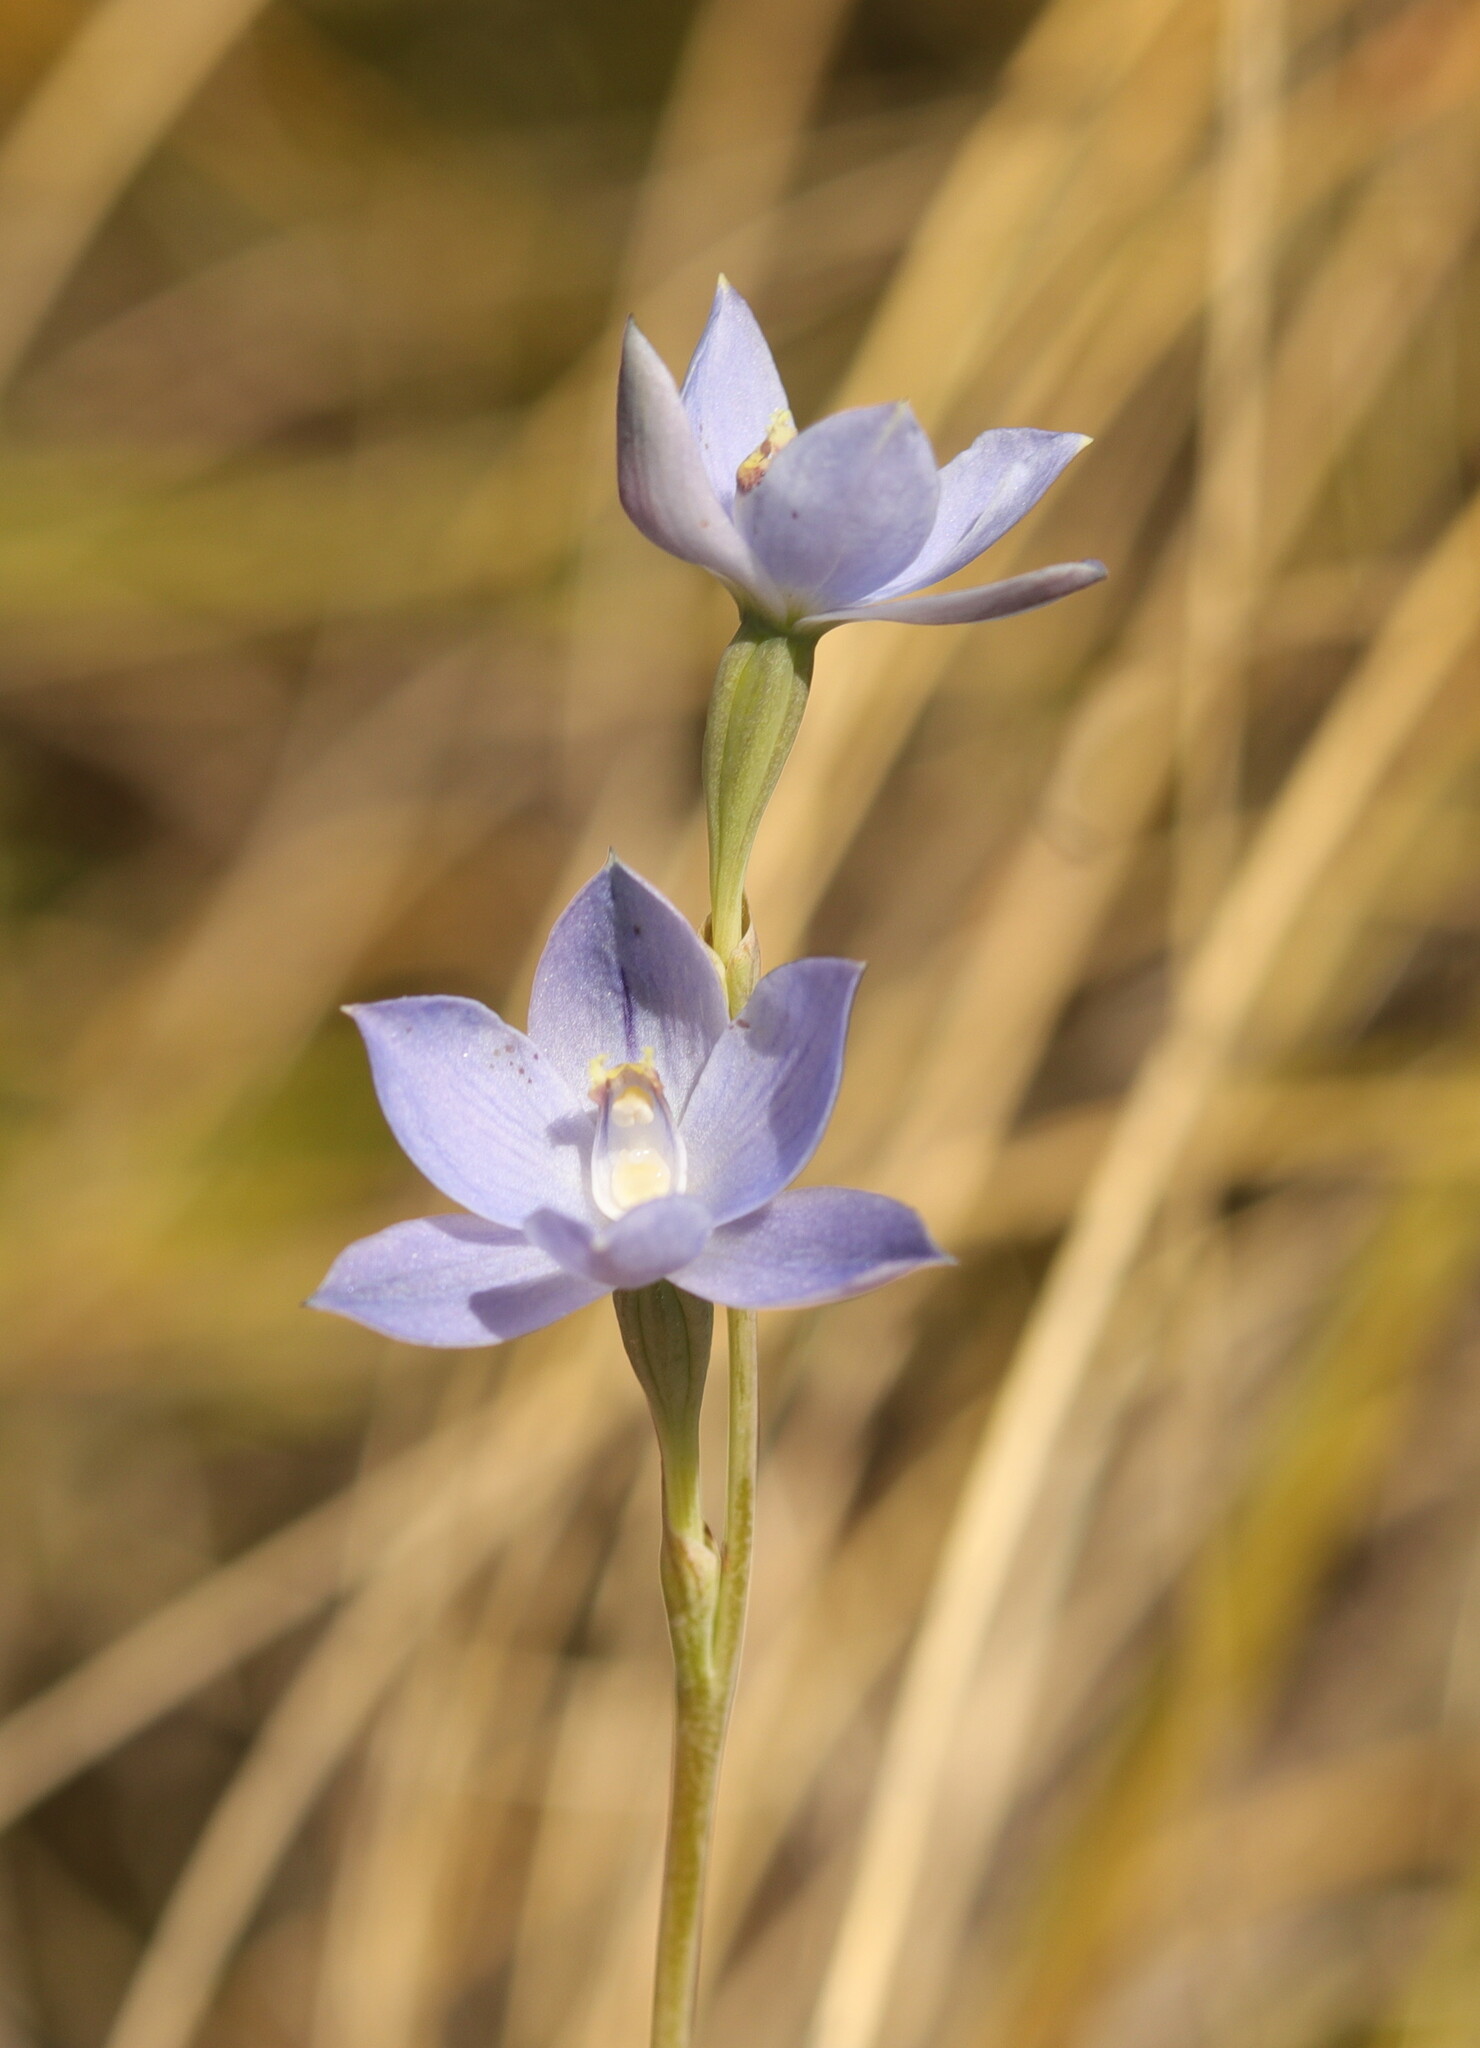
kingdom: Plantae
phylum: Tracheophyta
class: Liliopsida
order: Asparagales
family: Orchidaceae
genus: Thelymitra
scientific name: Thelymitra pulchella
